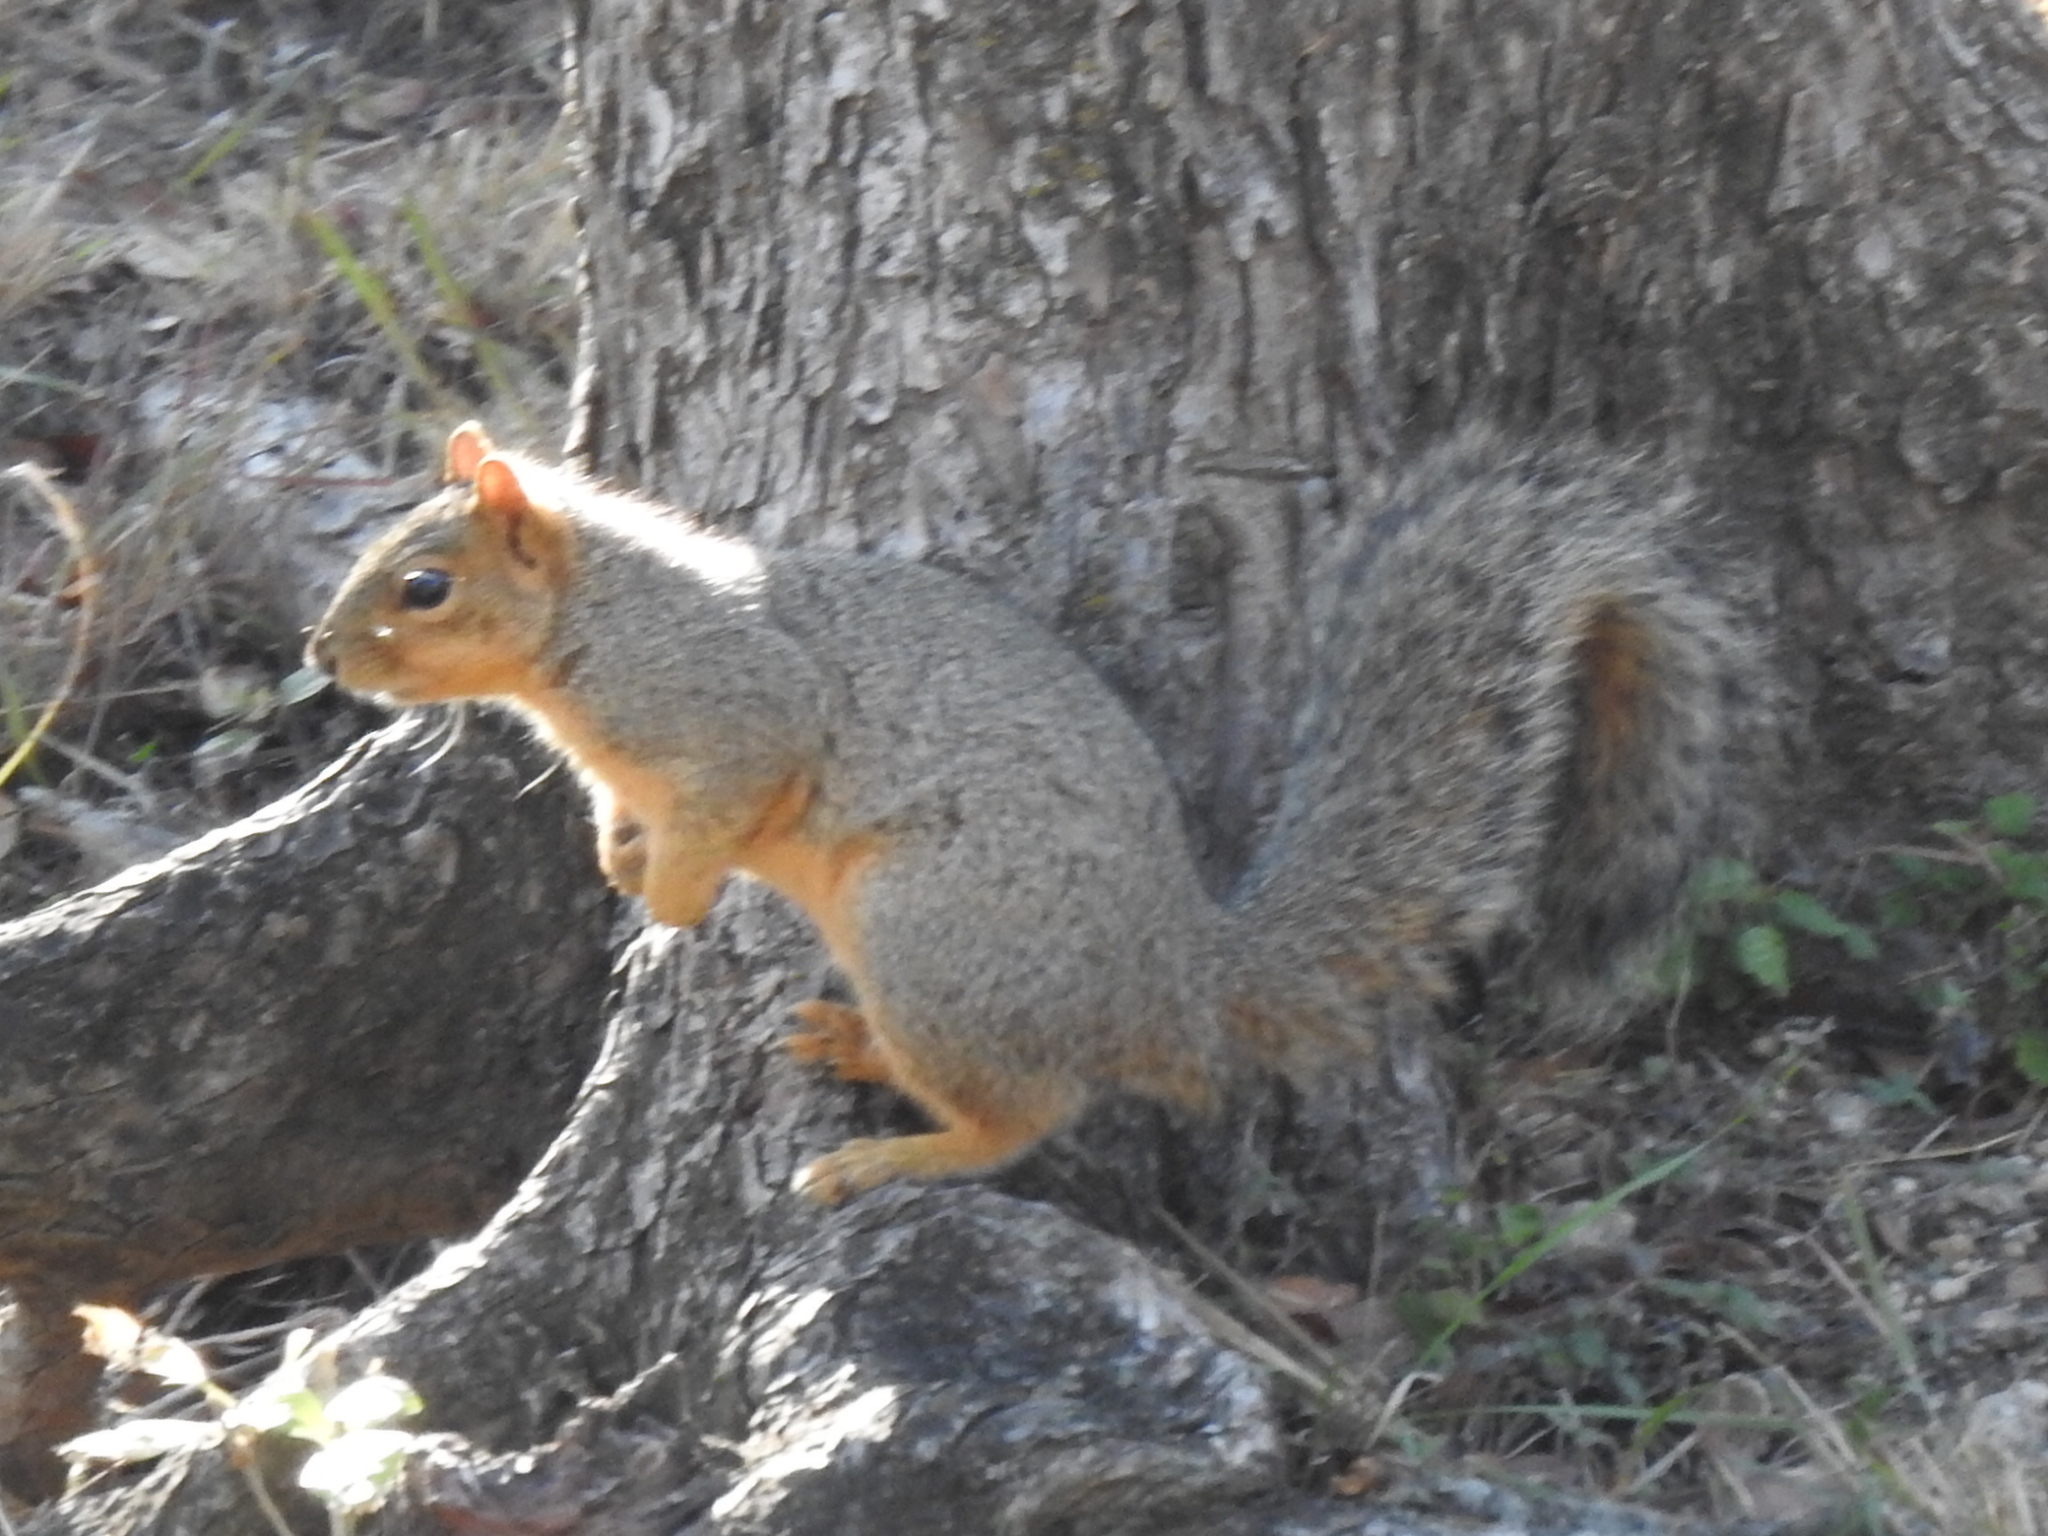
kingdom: Animalia
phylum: Chordata
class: Mammalia
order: Rodentia
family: Sciuridae
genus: Sciurus
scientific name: Sciurus niger
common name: Fox squirrel
